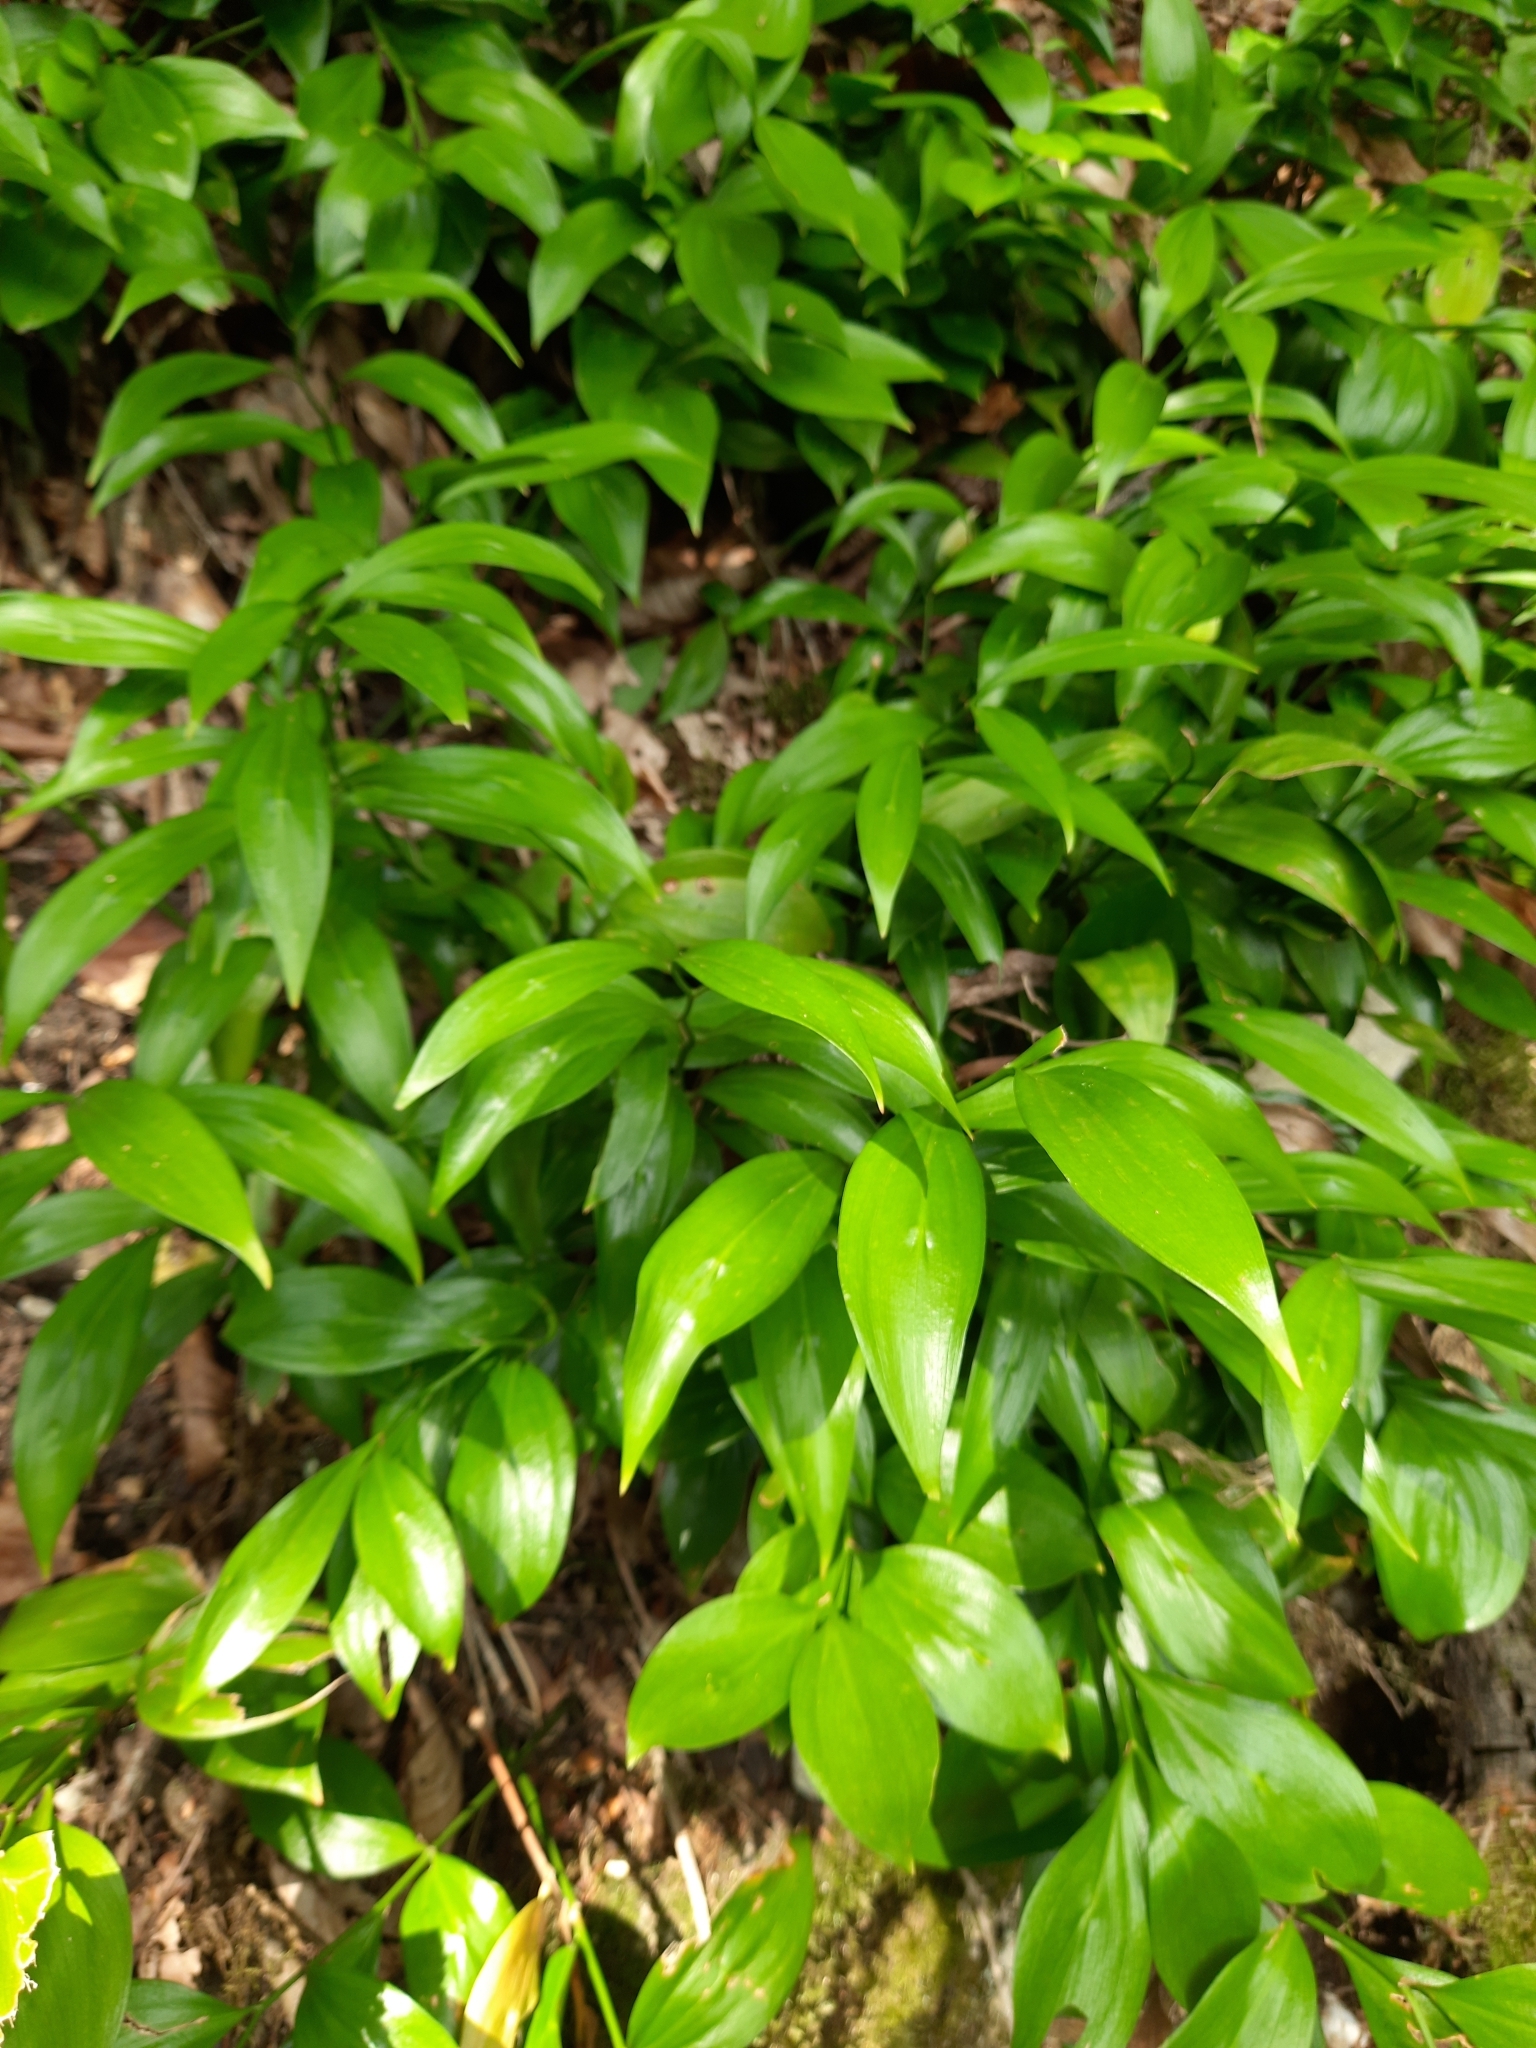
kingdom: Plantae
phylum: Tracheophyta
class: Liliopsida
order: Asparagales
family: Asparagaceae
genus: Ruscus
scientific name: Ruscus colchicus
